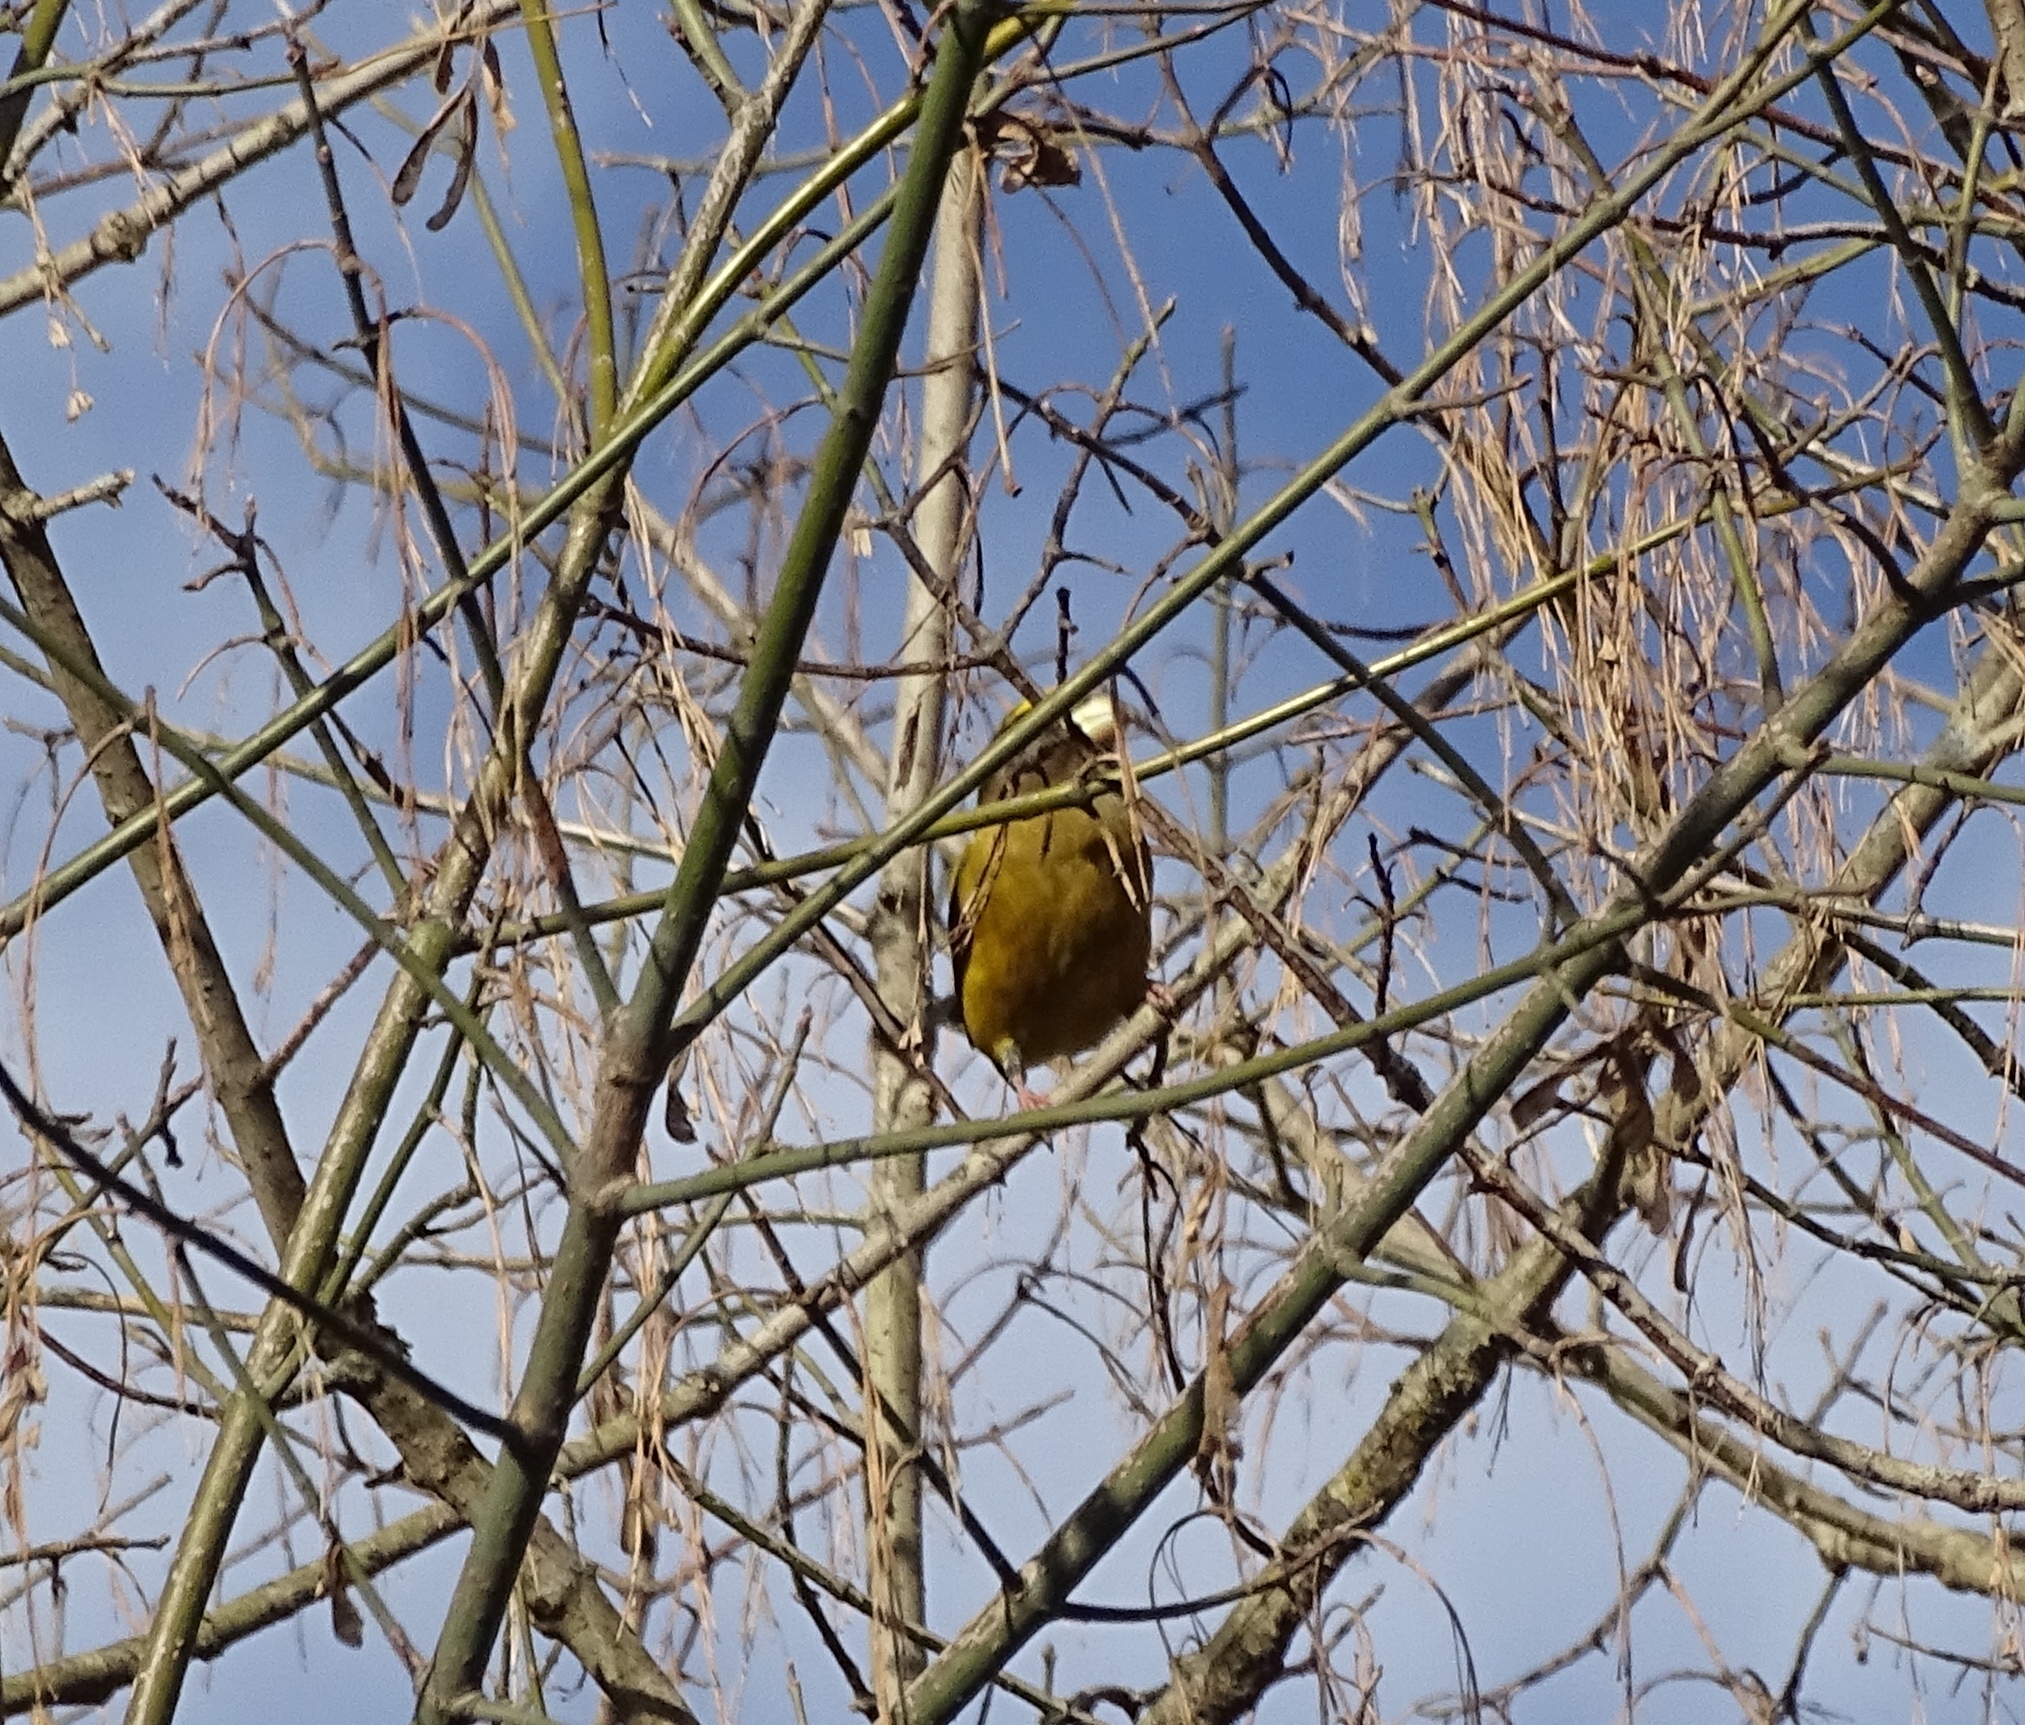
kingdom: Animalia
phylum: Chordata
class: Aves
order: Passeriformes
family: Fringillidae
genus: Hesperiphona
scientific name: Hesperiphona vespertina
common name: Evening grosbeak
